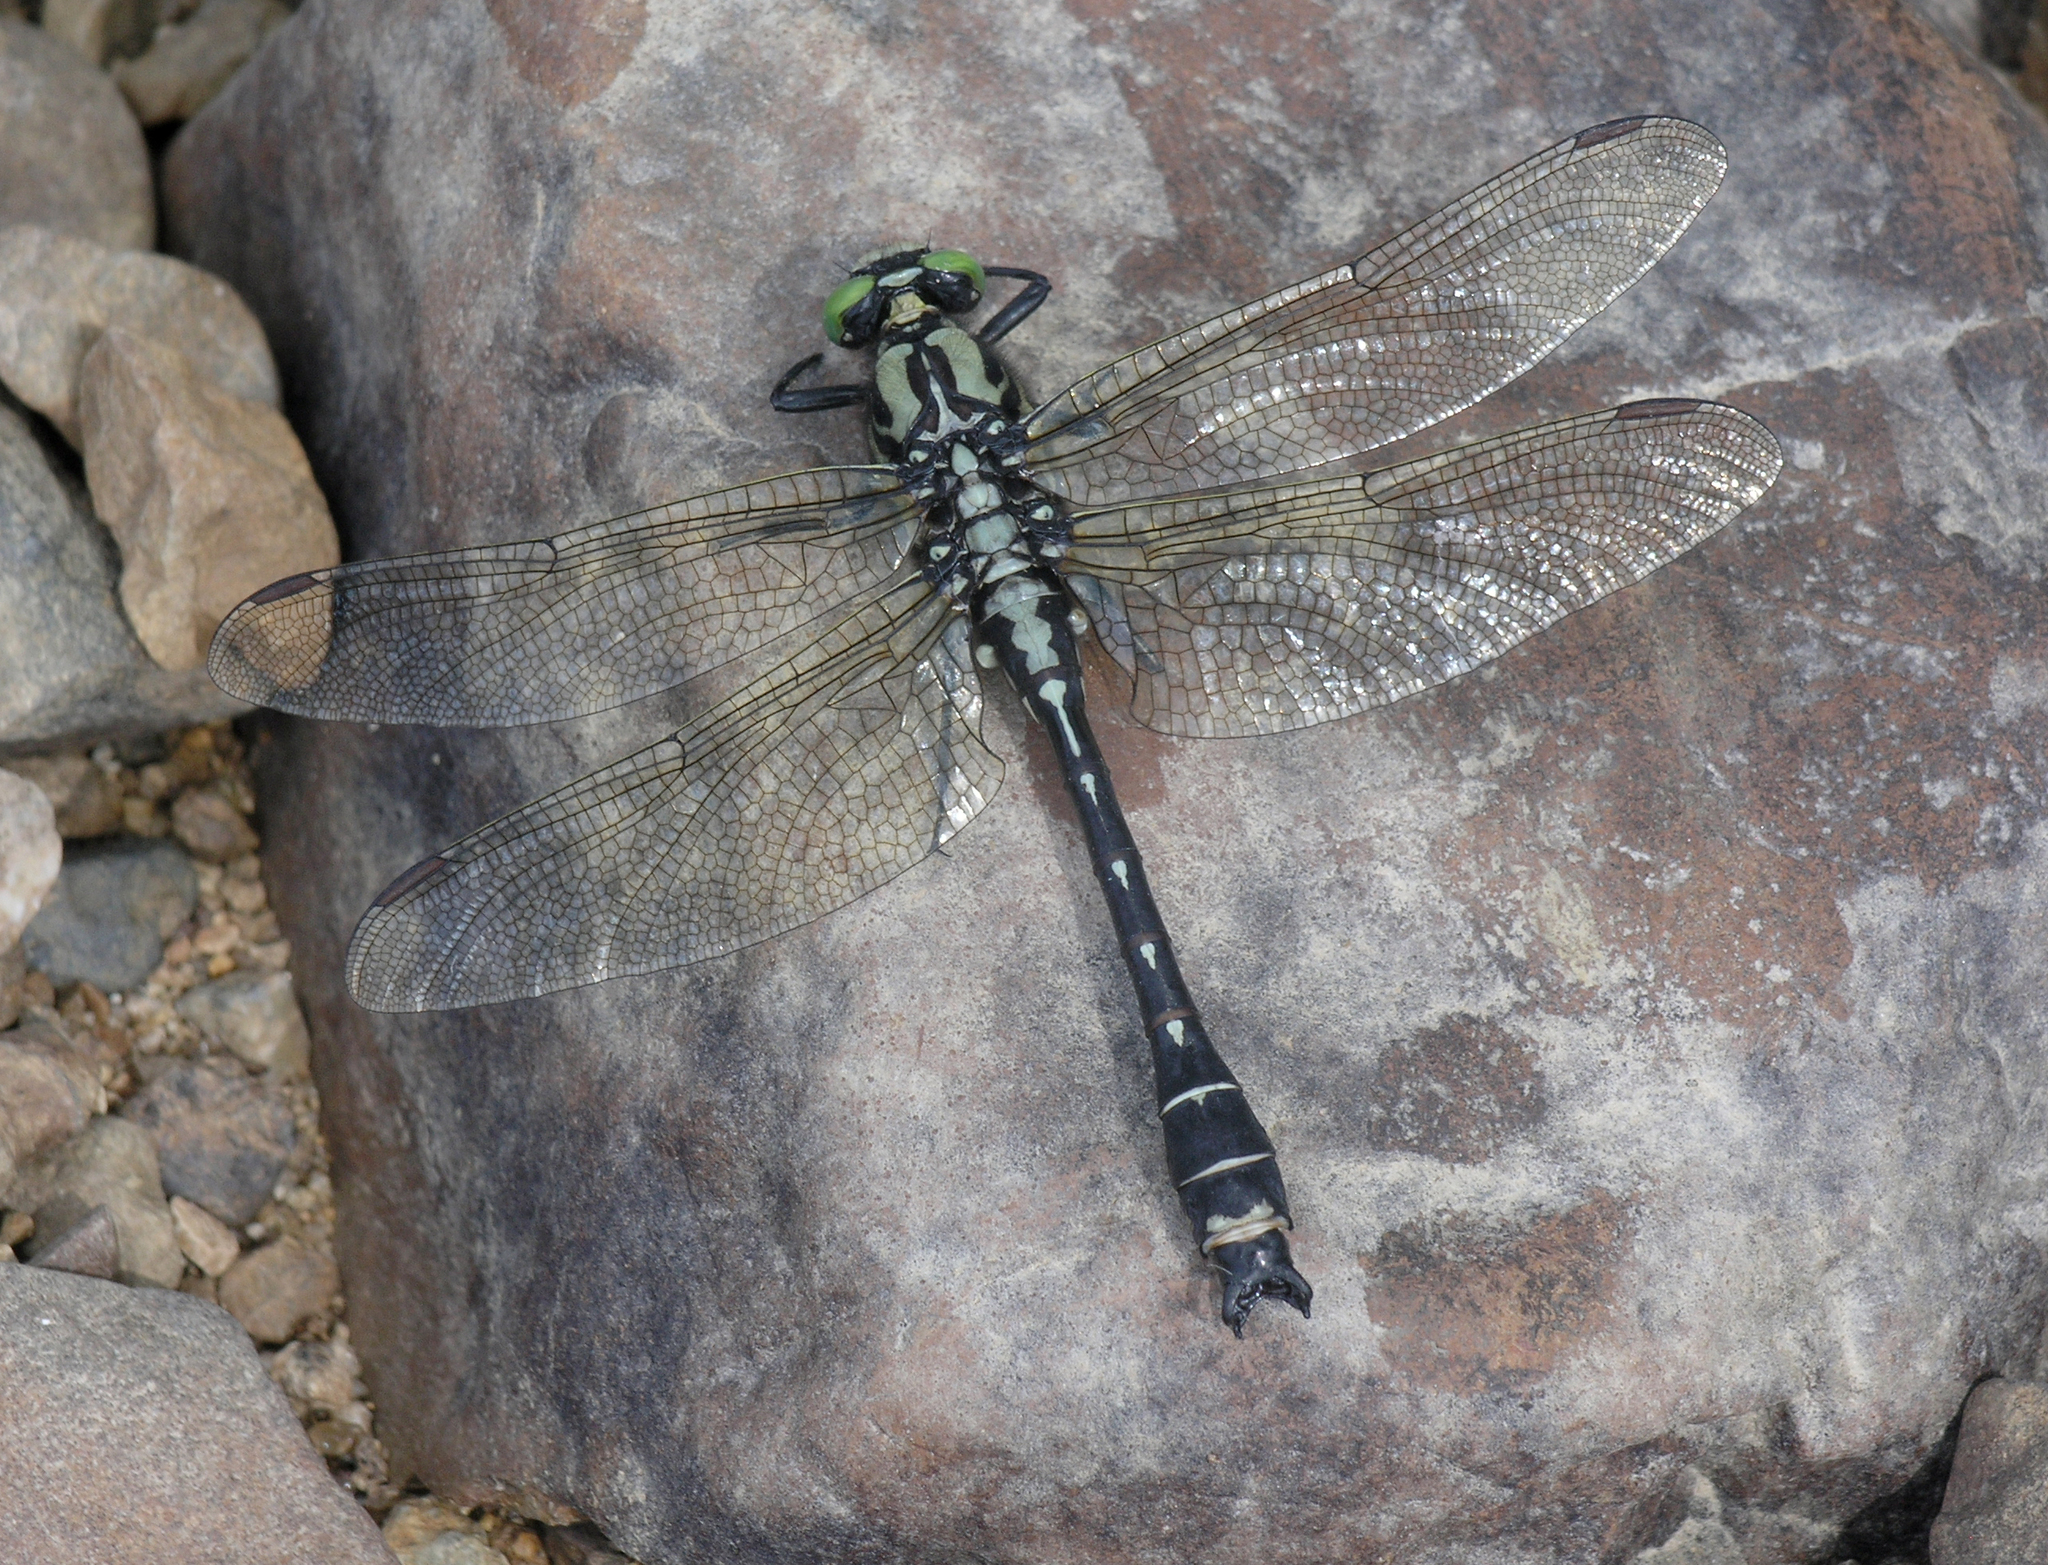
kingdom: Animalia
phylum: Arthropoda
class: Insecta
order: Odonata
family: Gomphidae
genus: Shaogomphus
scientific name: Shaogomphus postocularis
